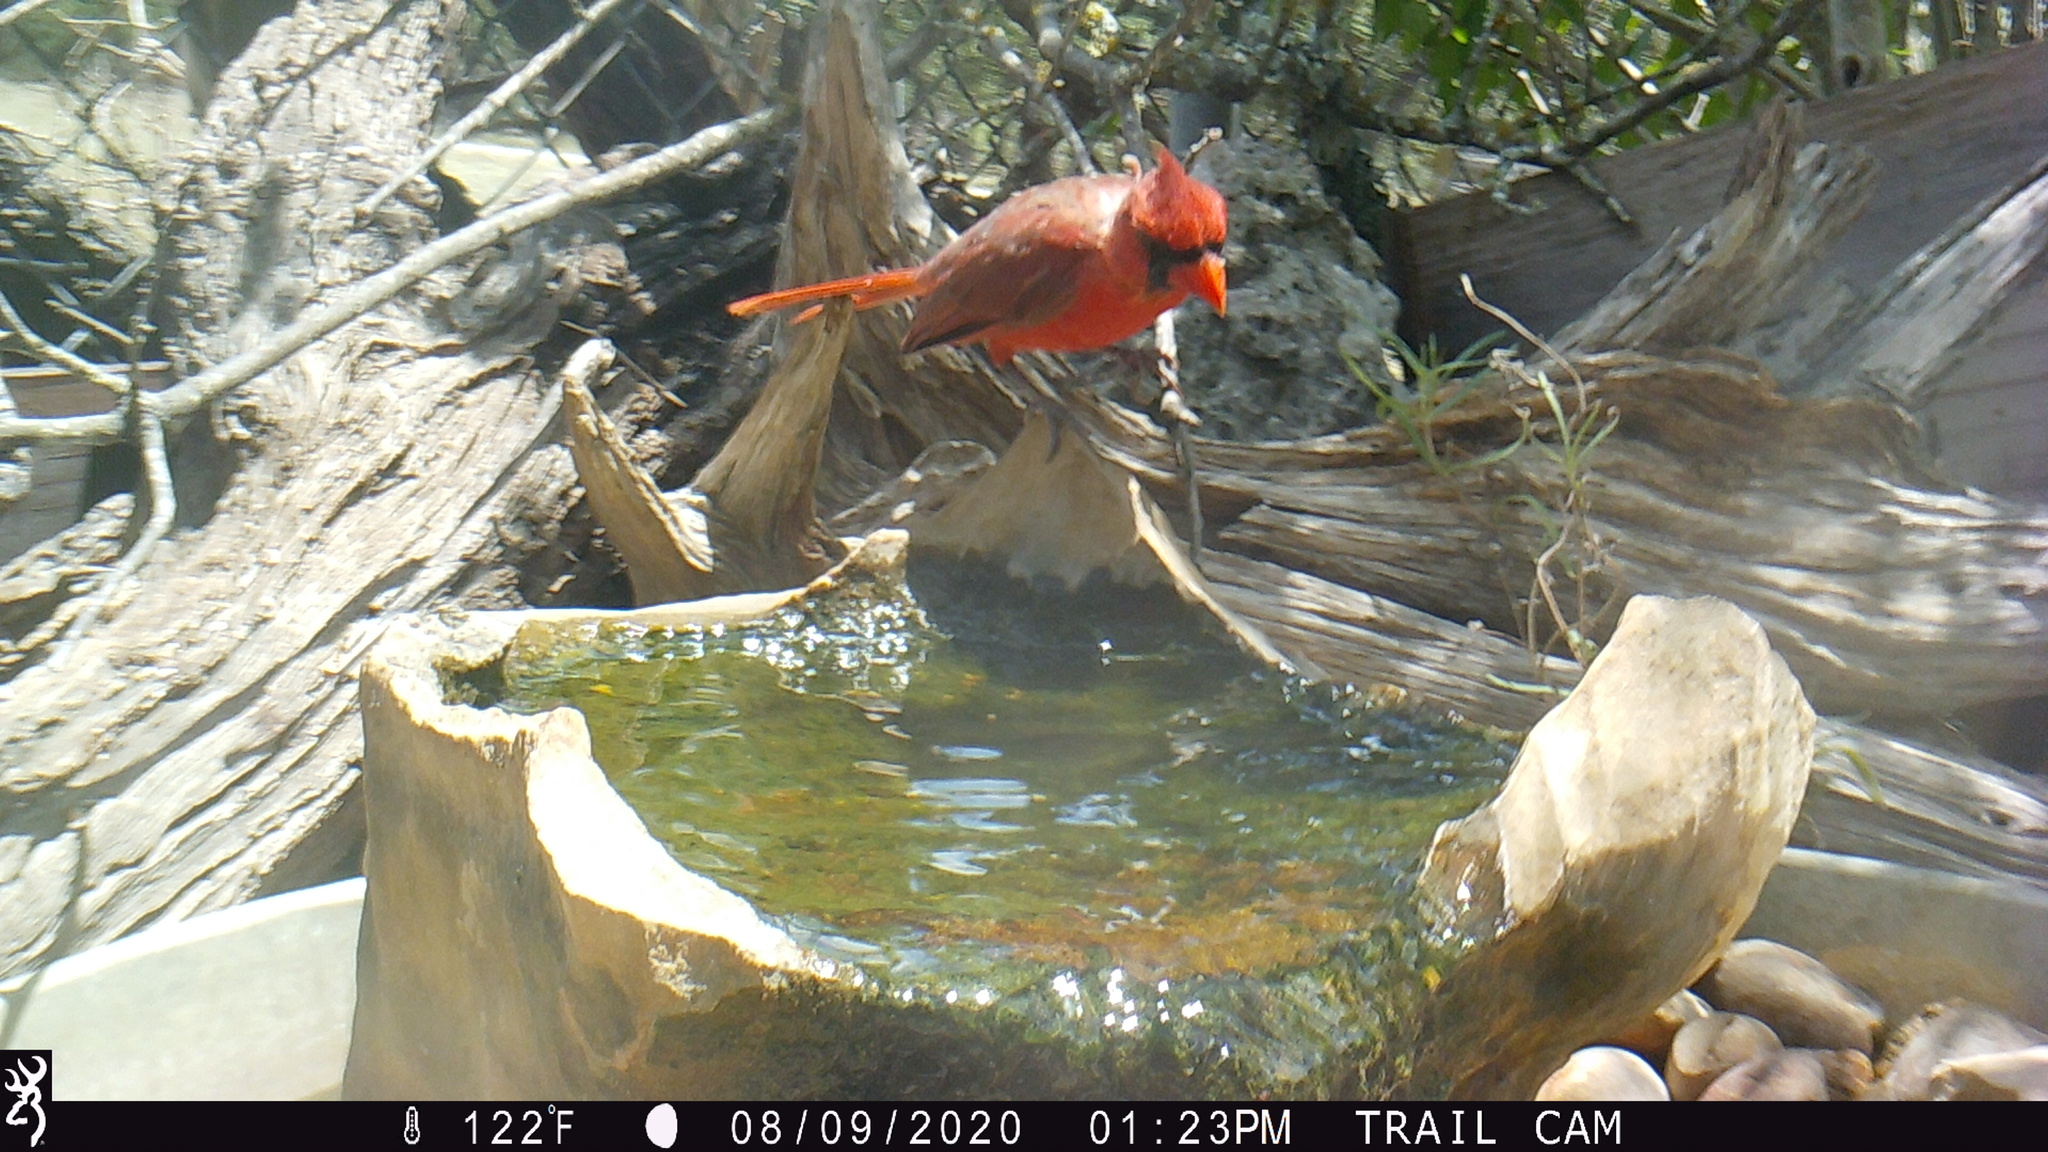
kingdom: Animalia
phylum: Chordata
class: Aves
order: Passeriformes
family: Cardinalidae
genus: Cardinalis
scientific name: Cardinalis cardinalis
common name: Northern cardinal
